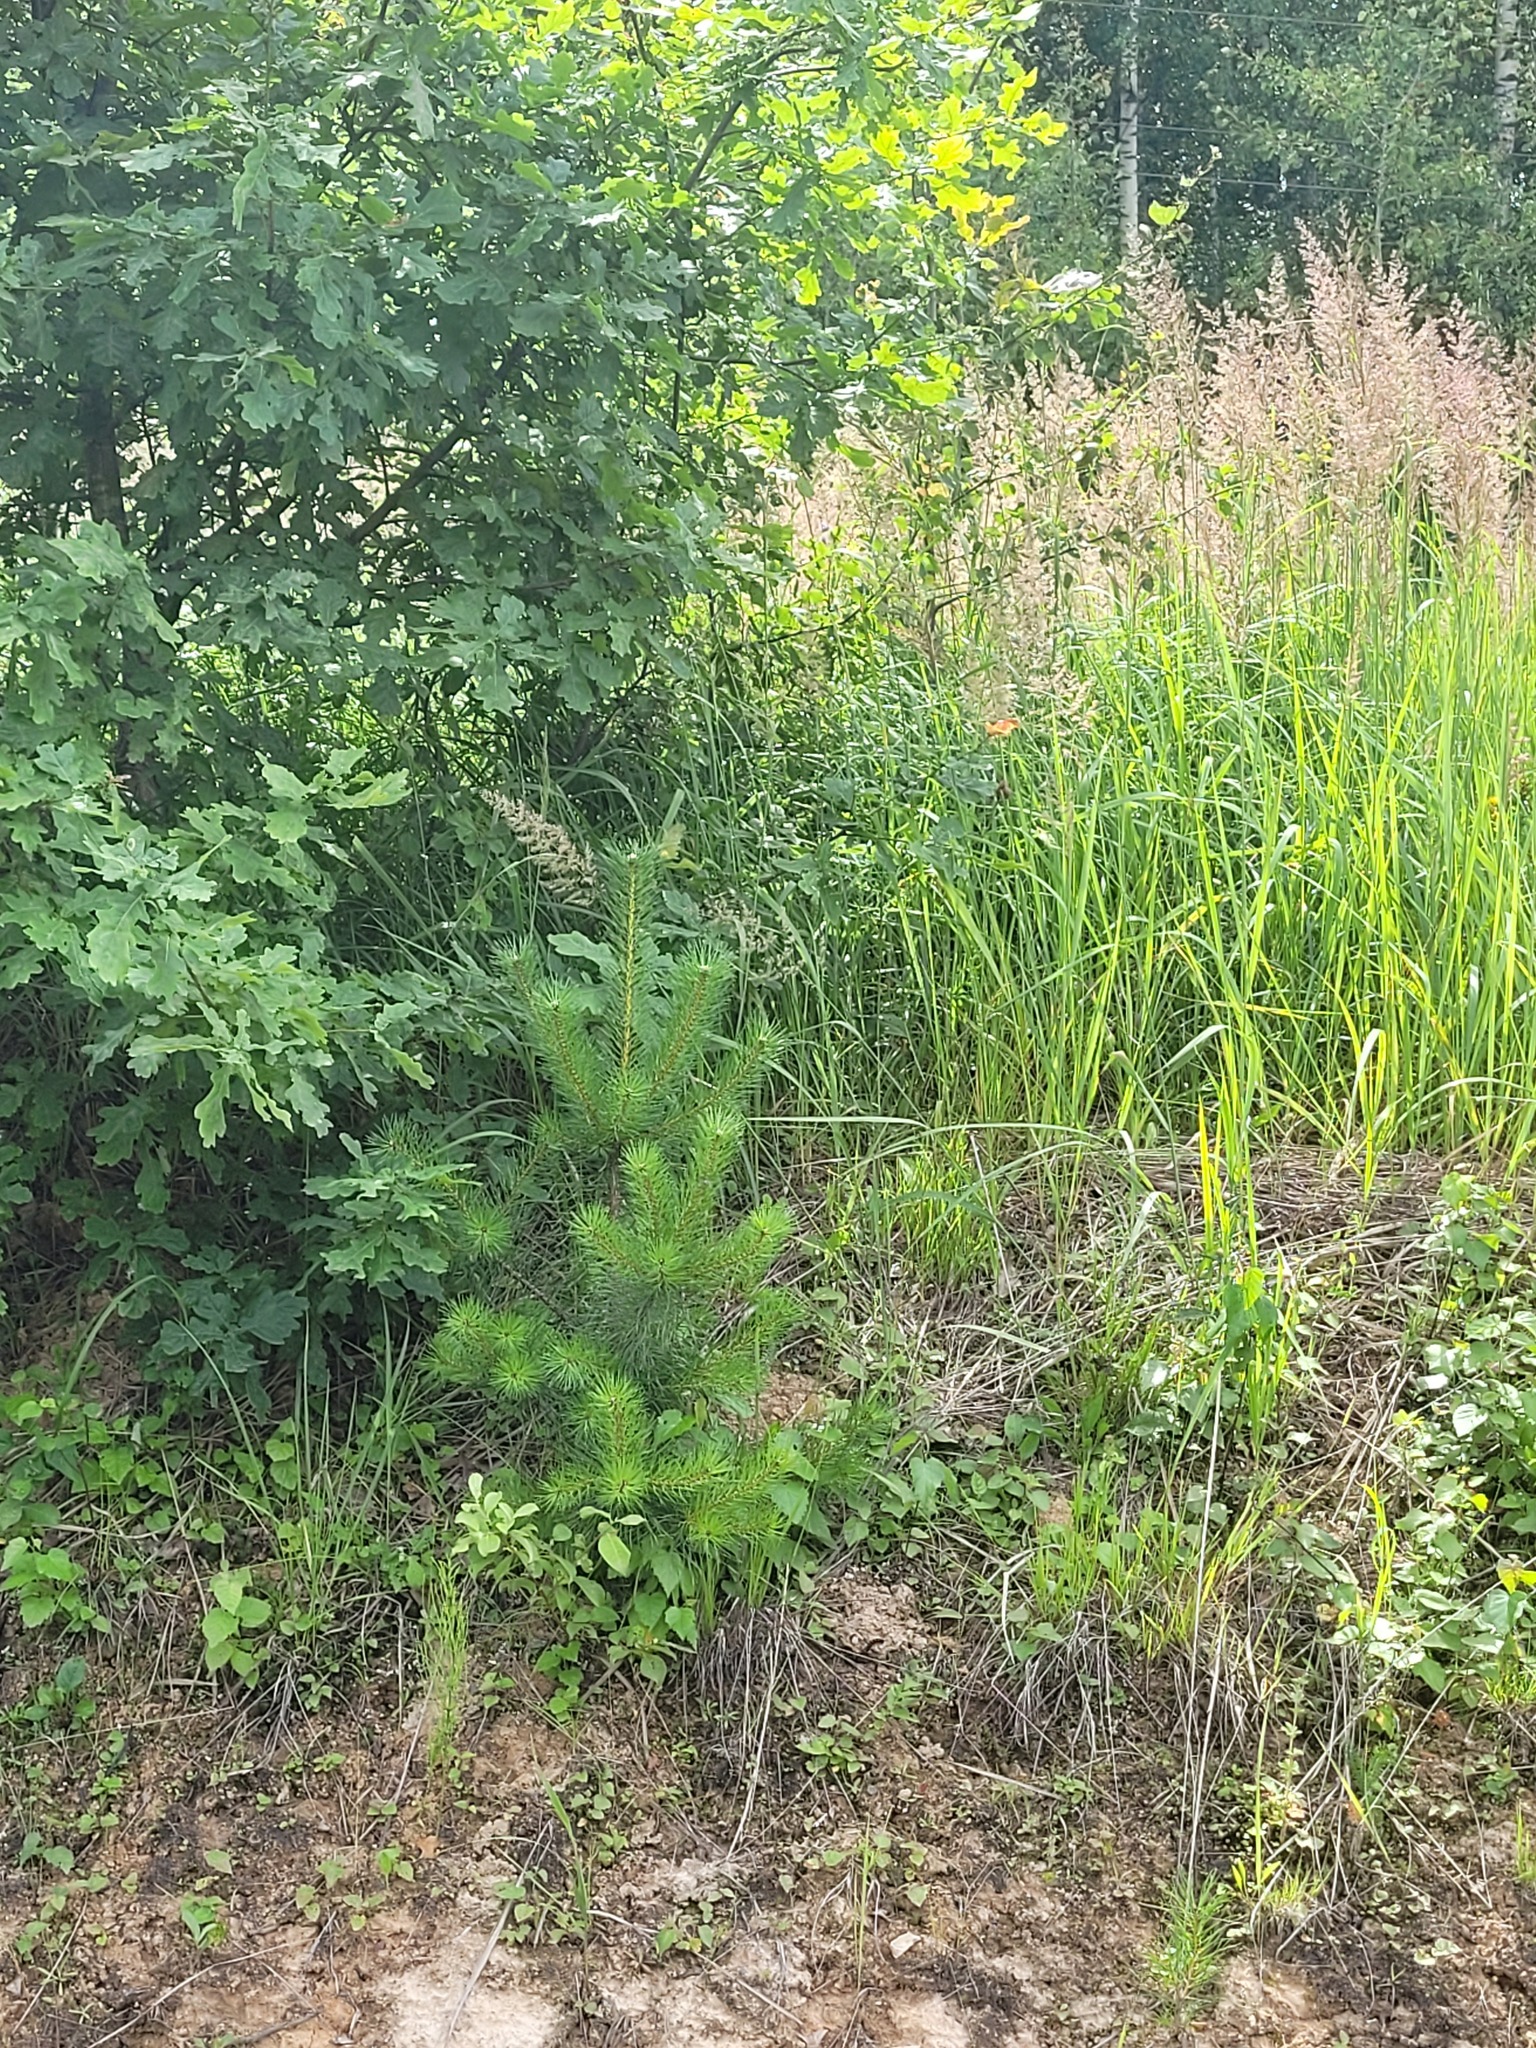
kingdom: Plantae
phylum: Tracheophyta
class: Pinopsida
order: Pinales
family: Pinaceae
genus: Pinus
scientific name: Pinus sylvestris
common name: Scots pine
